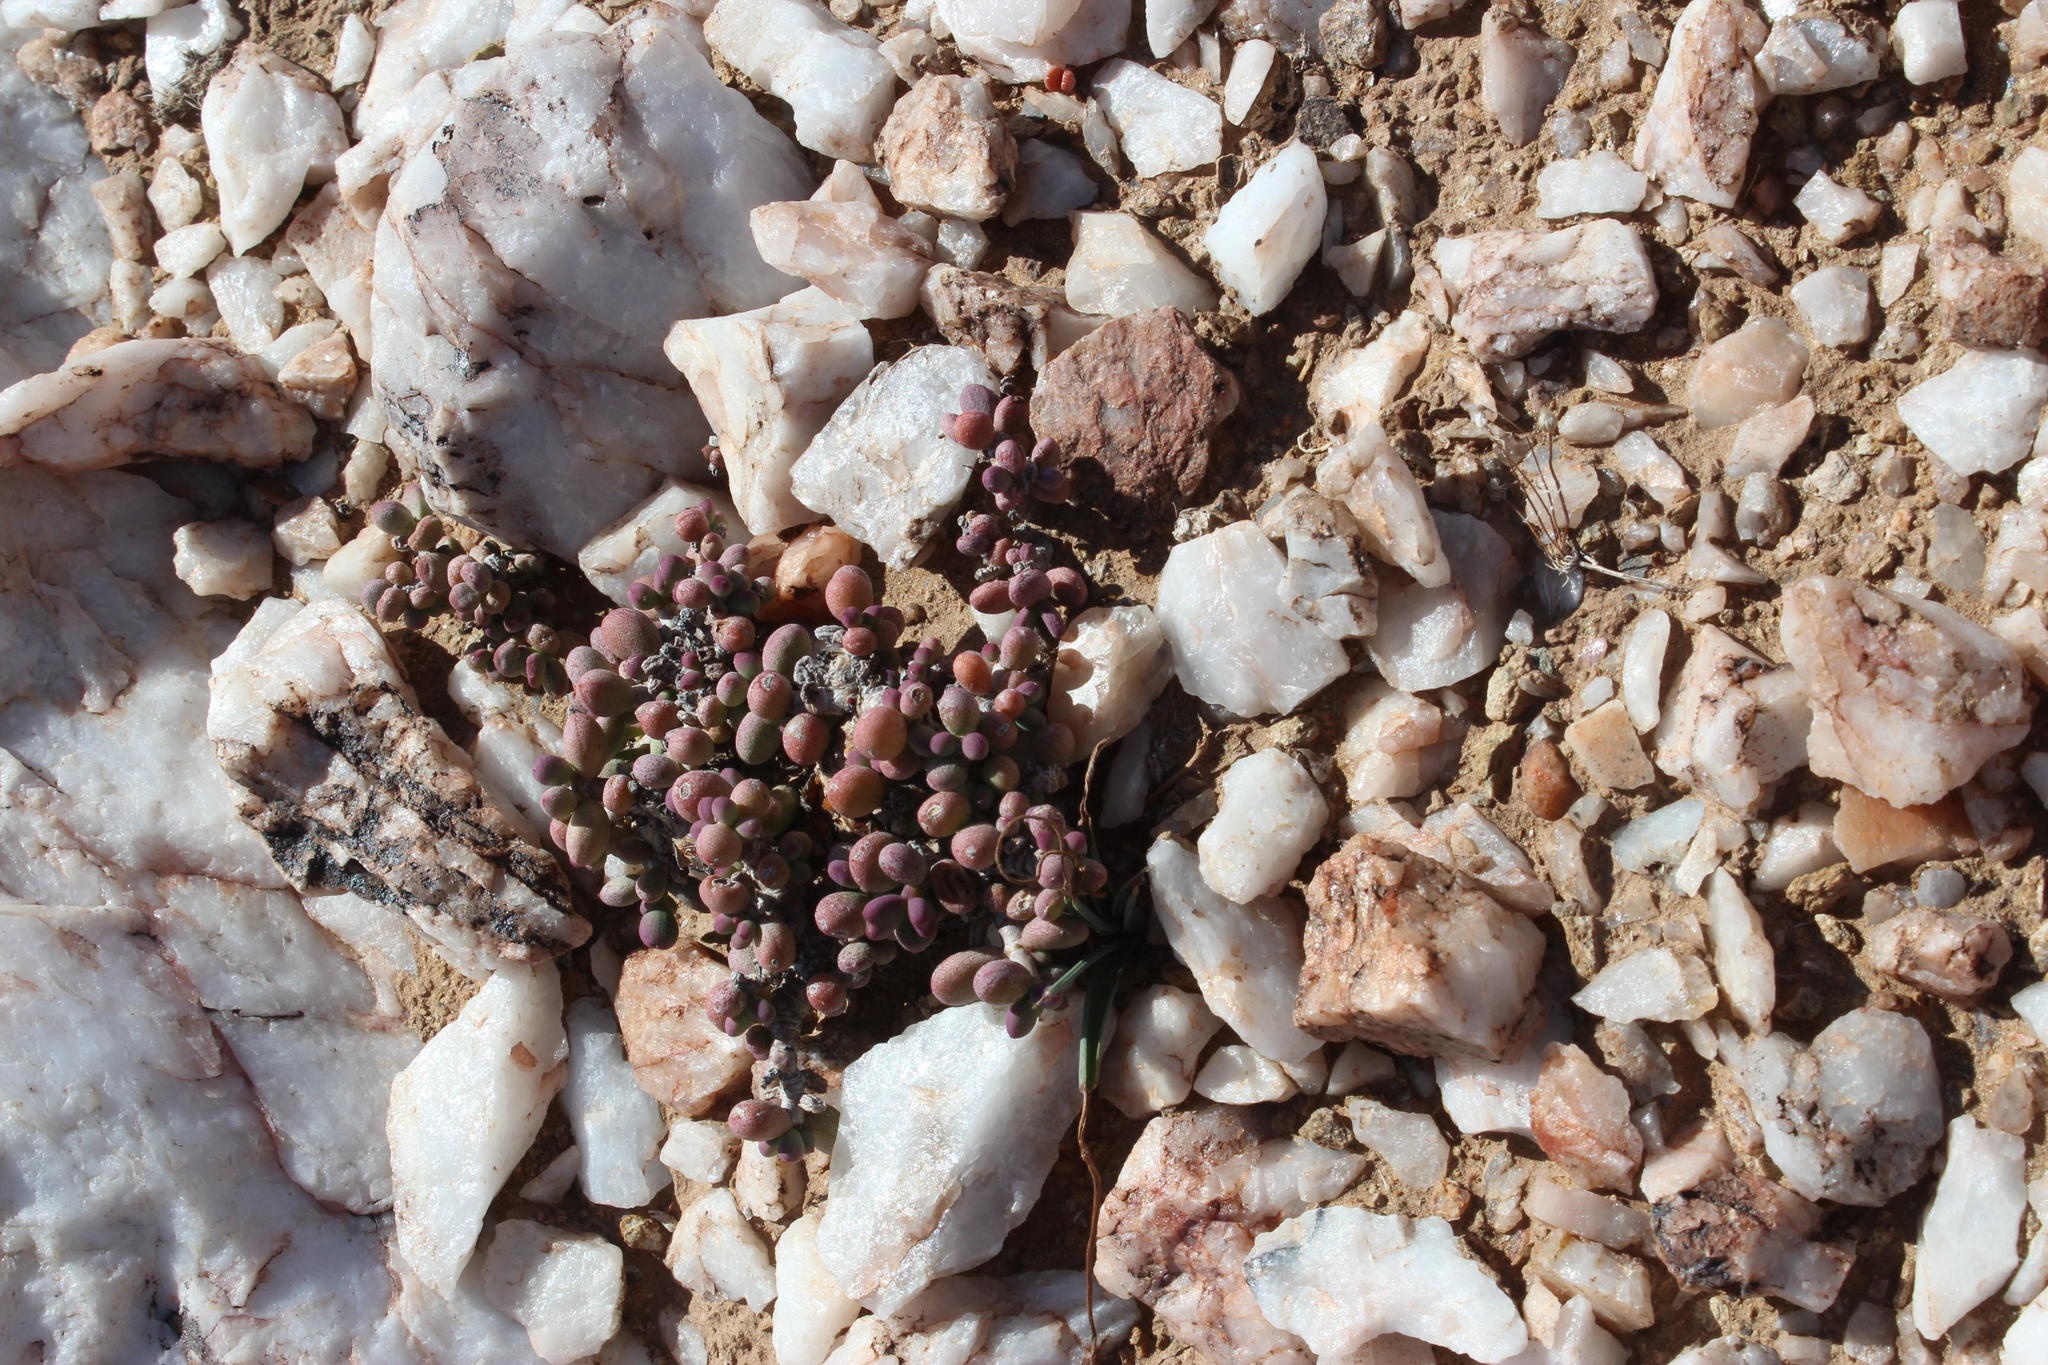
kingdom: Plantae
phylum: Tracheophyta
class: Magnoliopsida
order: Caryophyllales
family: Didiereaceae
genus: Portulacaria
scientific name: Portulacaria pygmaea
